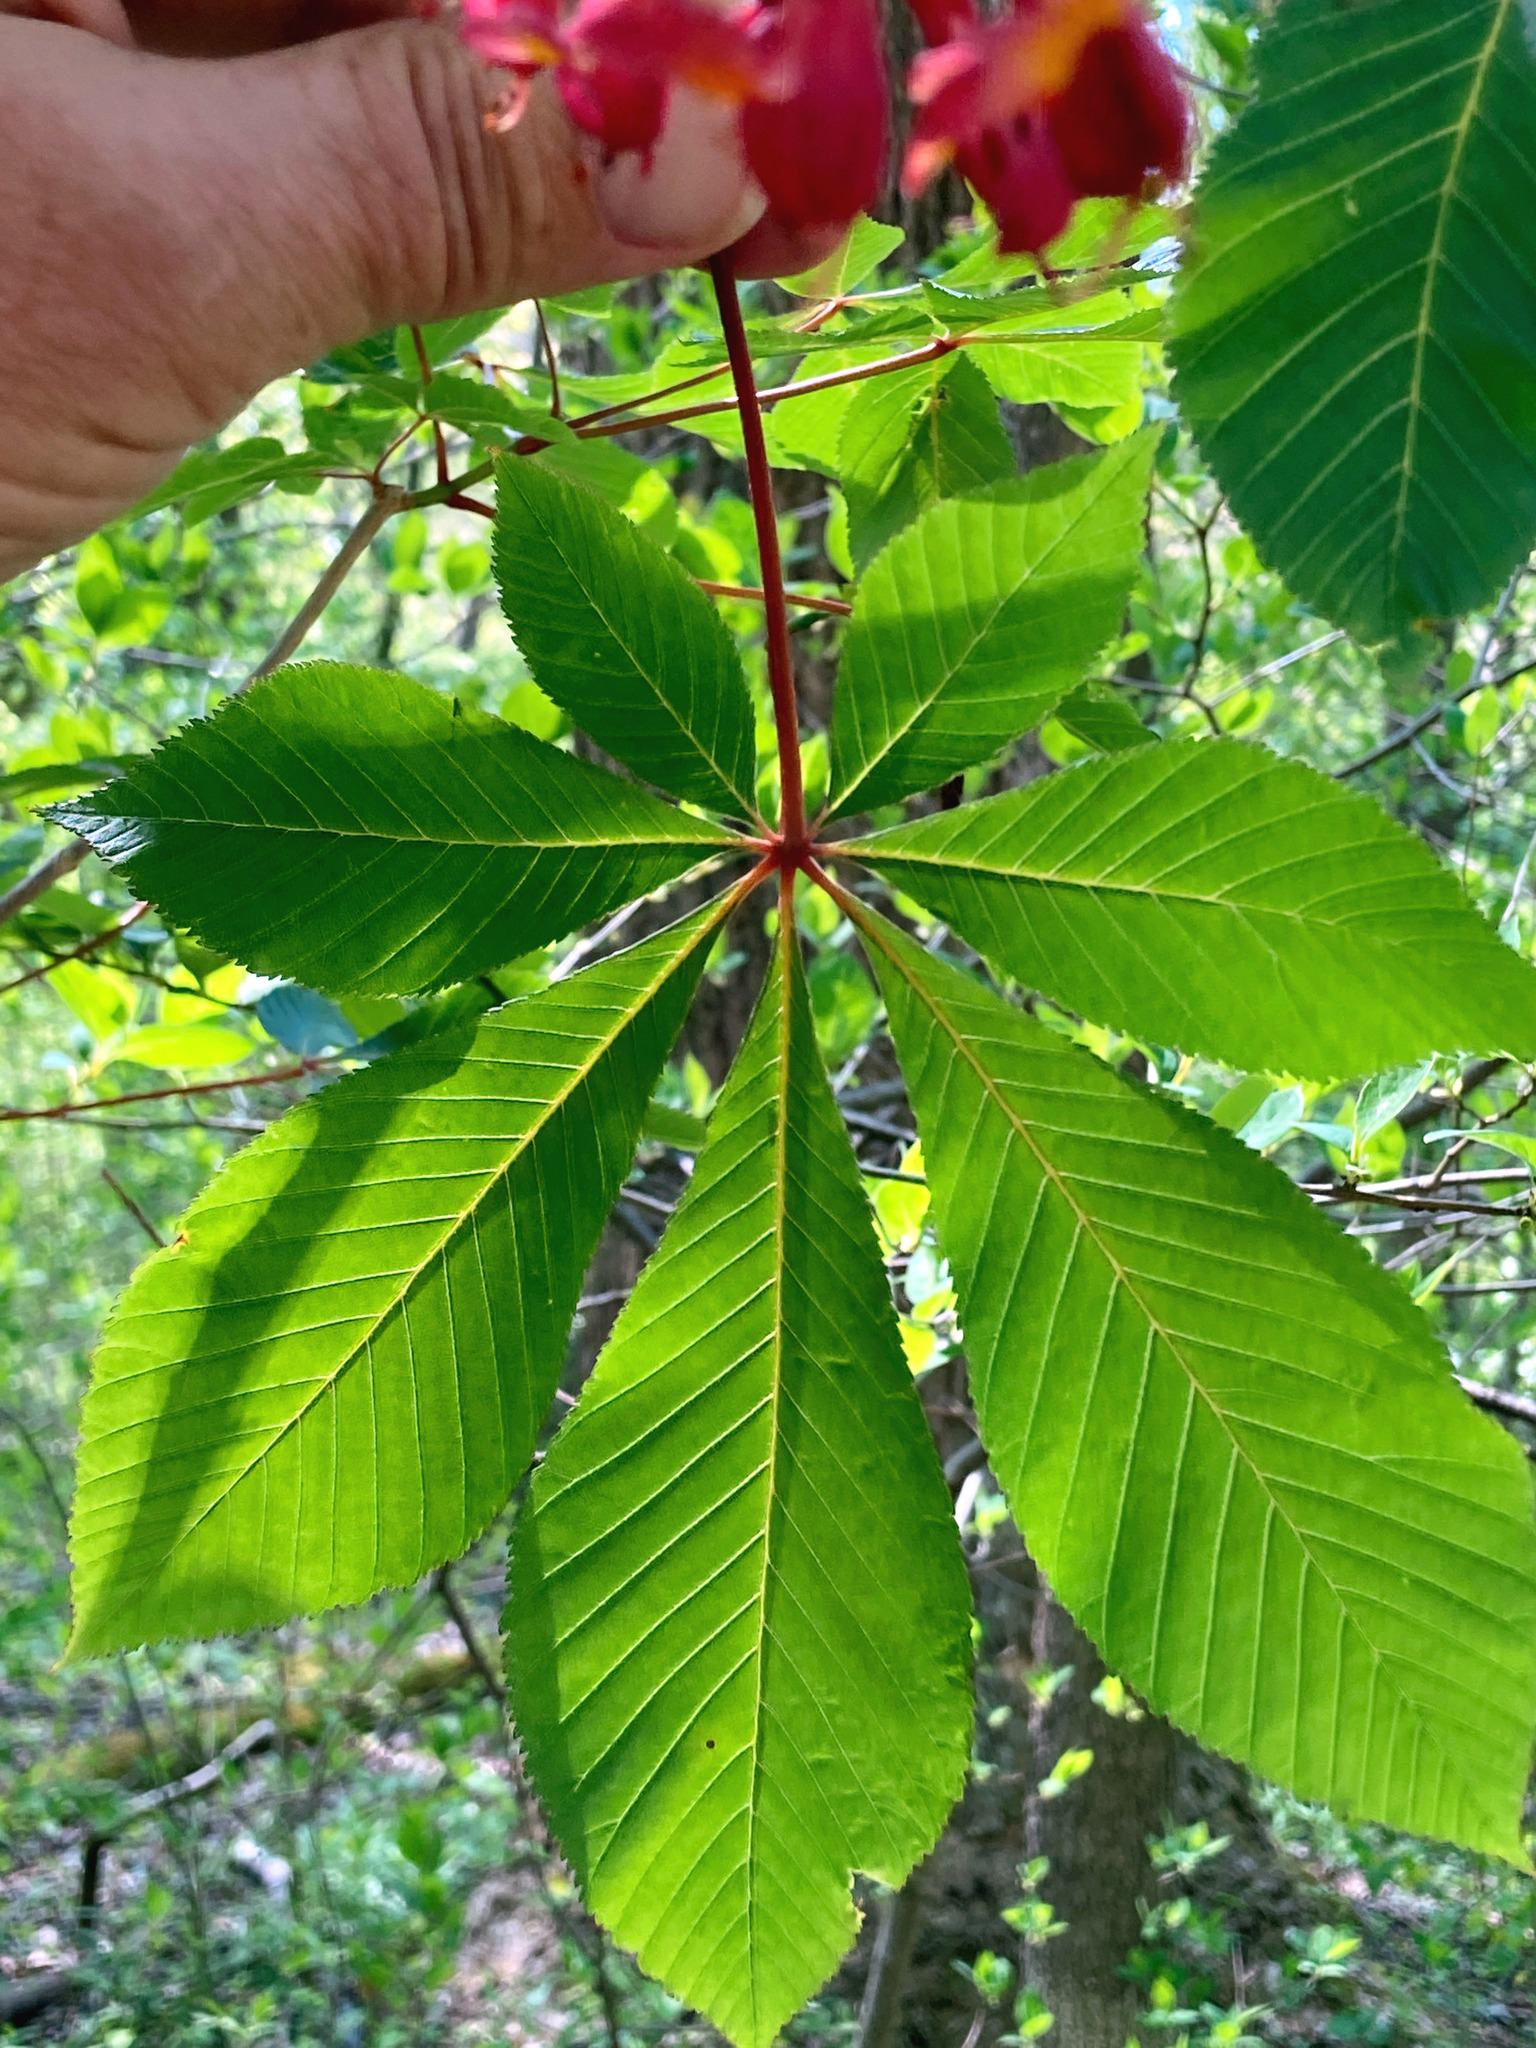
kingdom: Plantae
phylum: Tracheophyta
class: Magnoliopsida
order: Sapindales
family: Sapindaceae
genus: Aesculus
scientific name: Aesculus pavia
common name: Red buckeye
